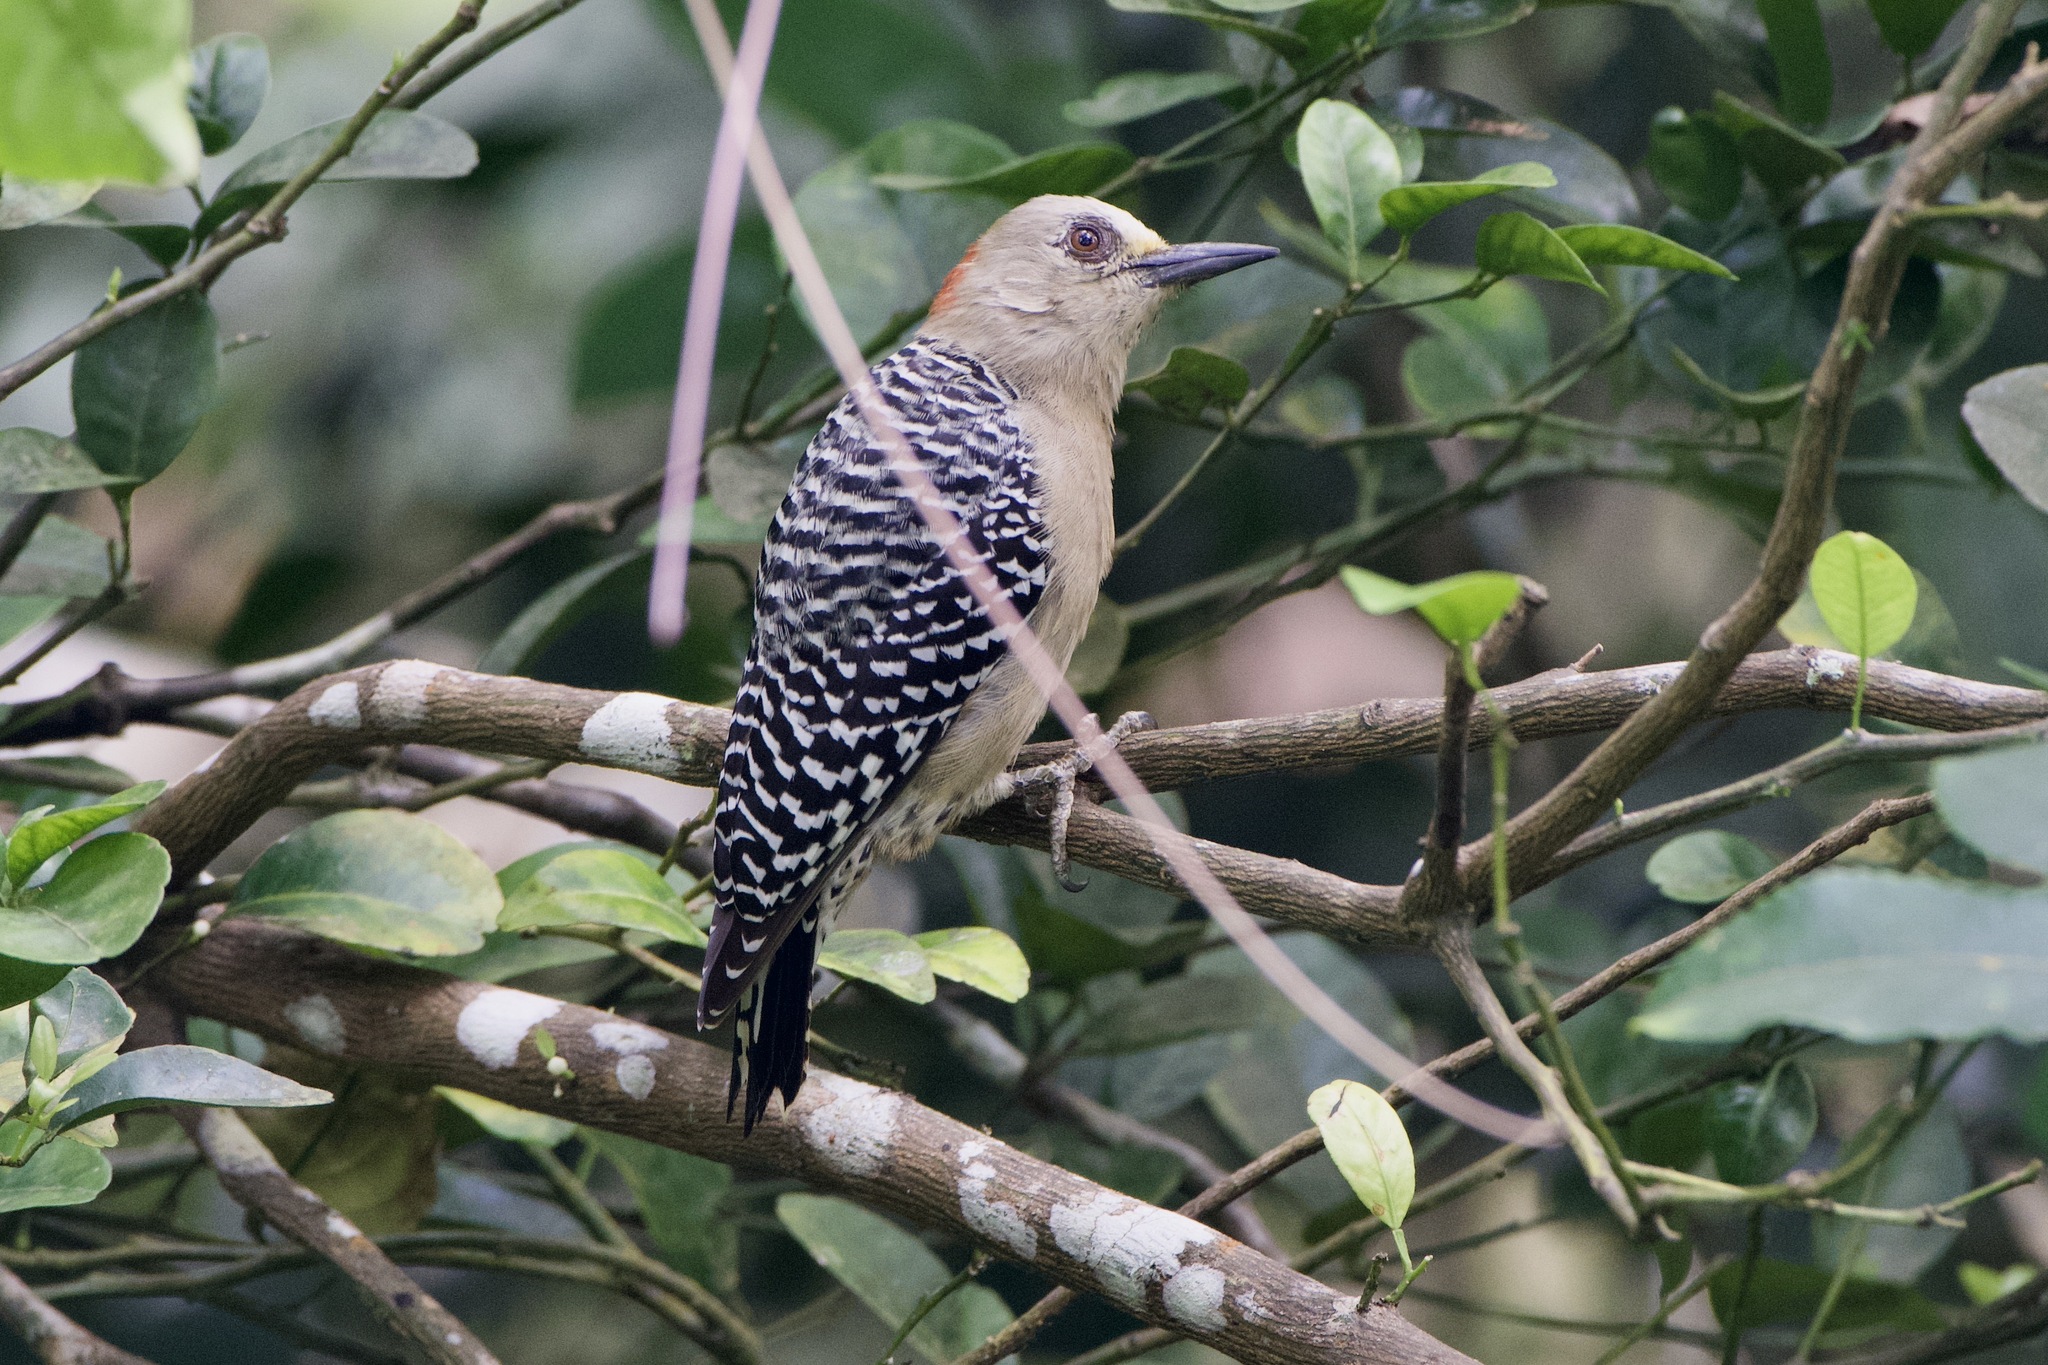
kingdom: Animalia
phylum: Chordata
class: Aves
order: Piciformes
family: Picidae
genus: Melanerpes
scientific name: Melanerpes rubricapillus
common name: Red-crowned woodpecker
